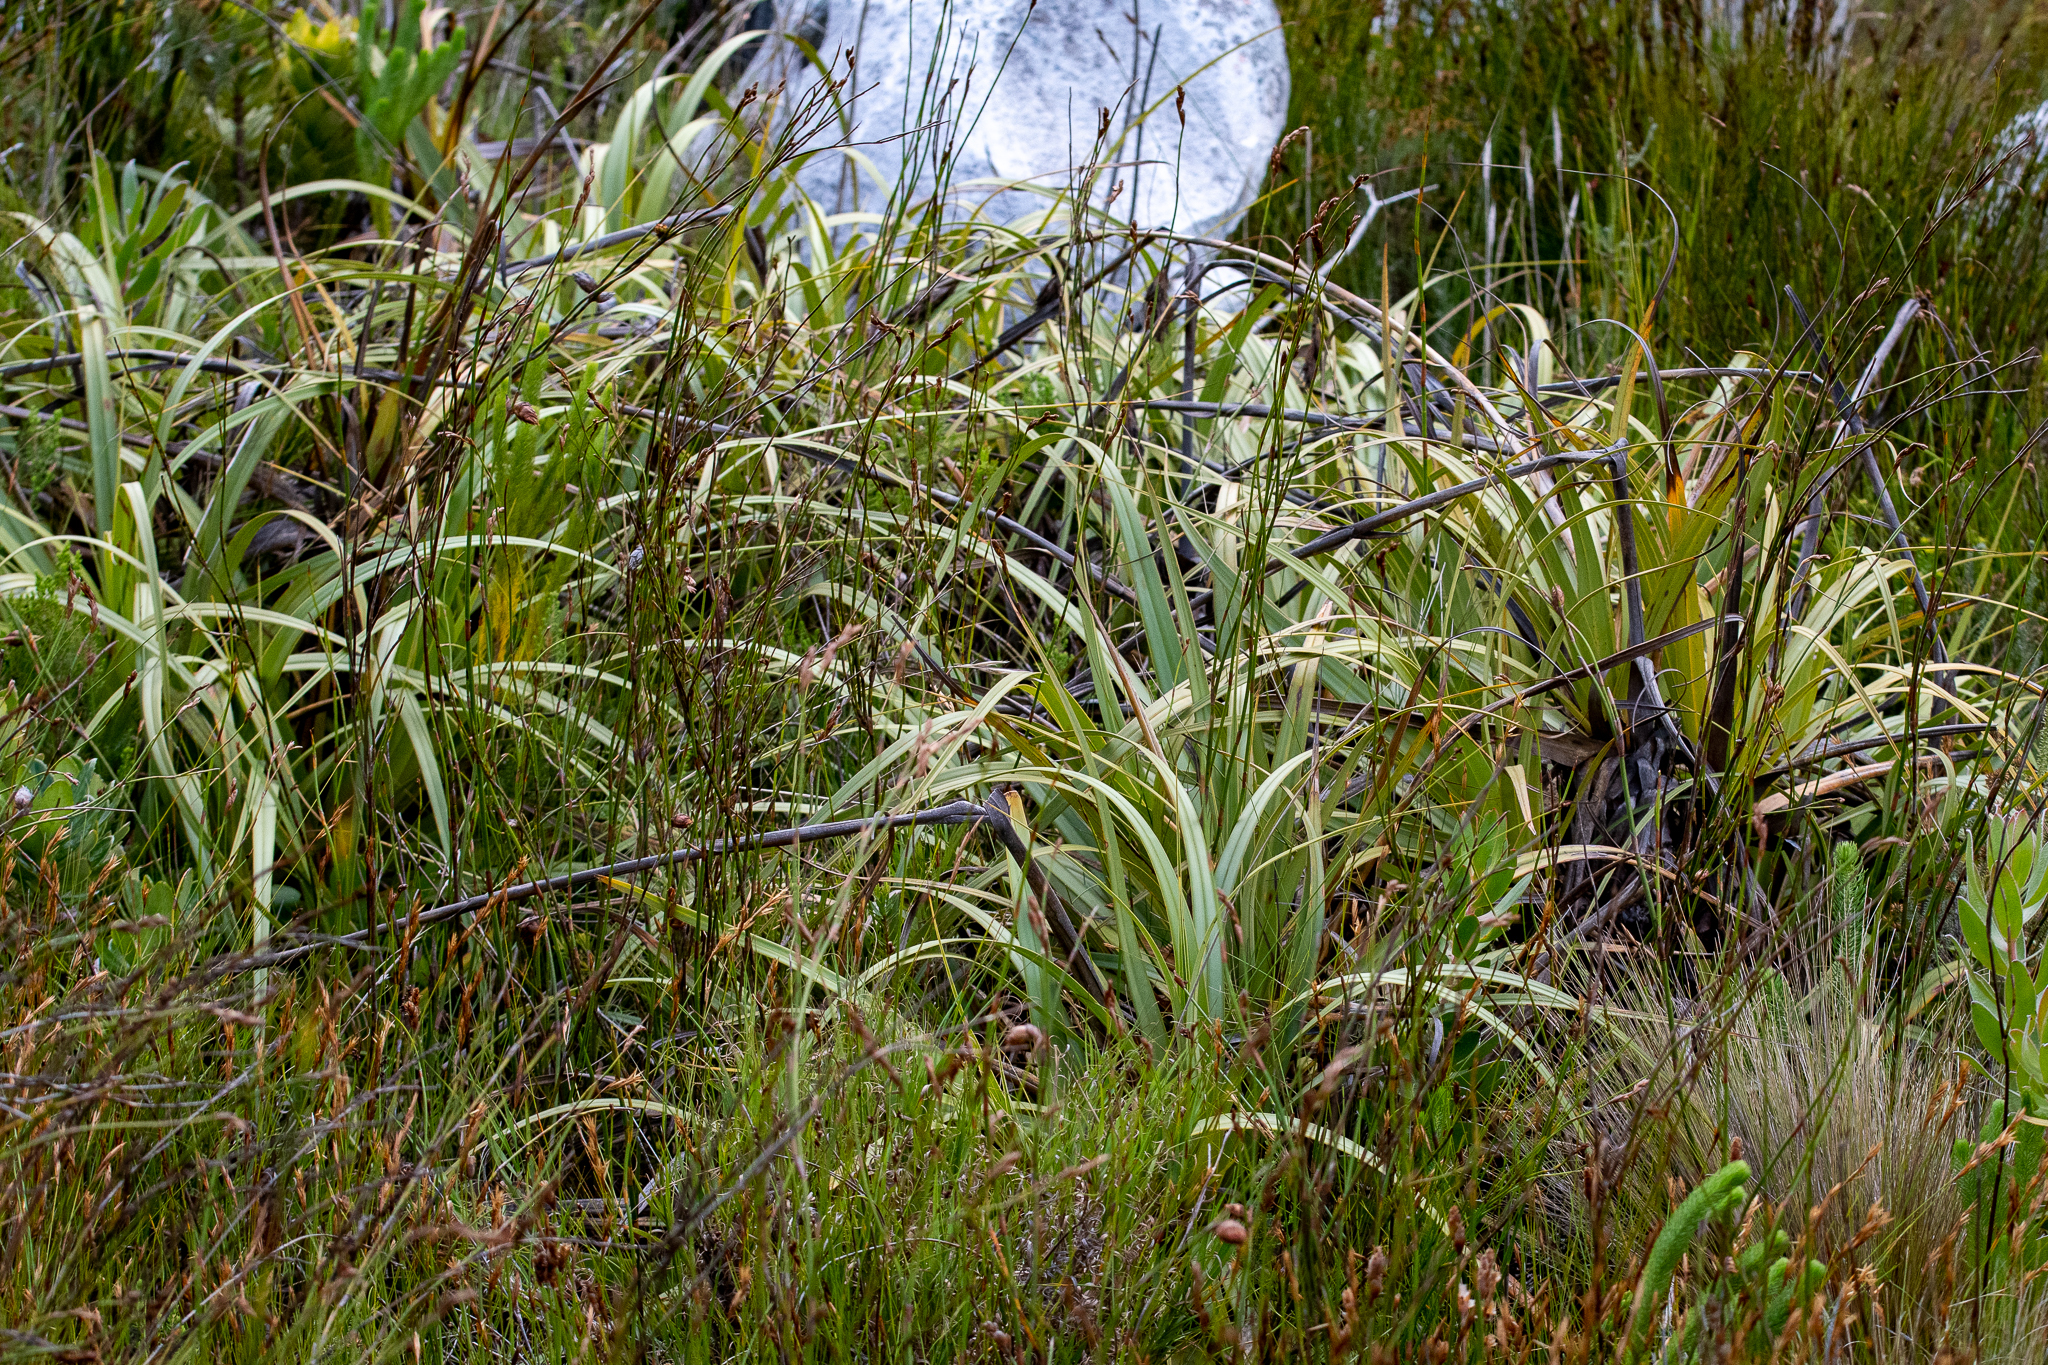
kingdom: Plantae
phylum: Tracheophyta
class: Liliopsida
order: Poales
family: Cyperaceae
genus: Tetraria
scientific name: Tetraria thermalis
